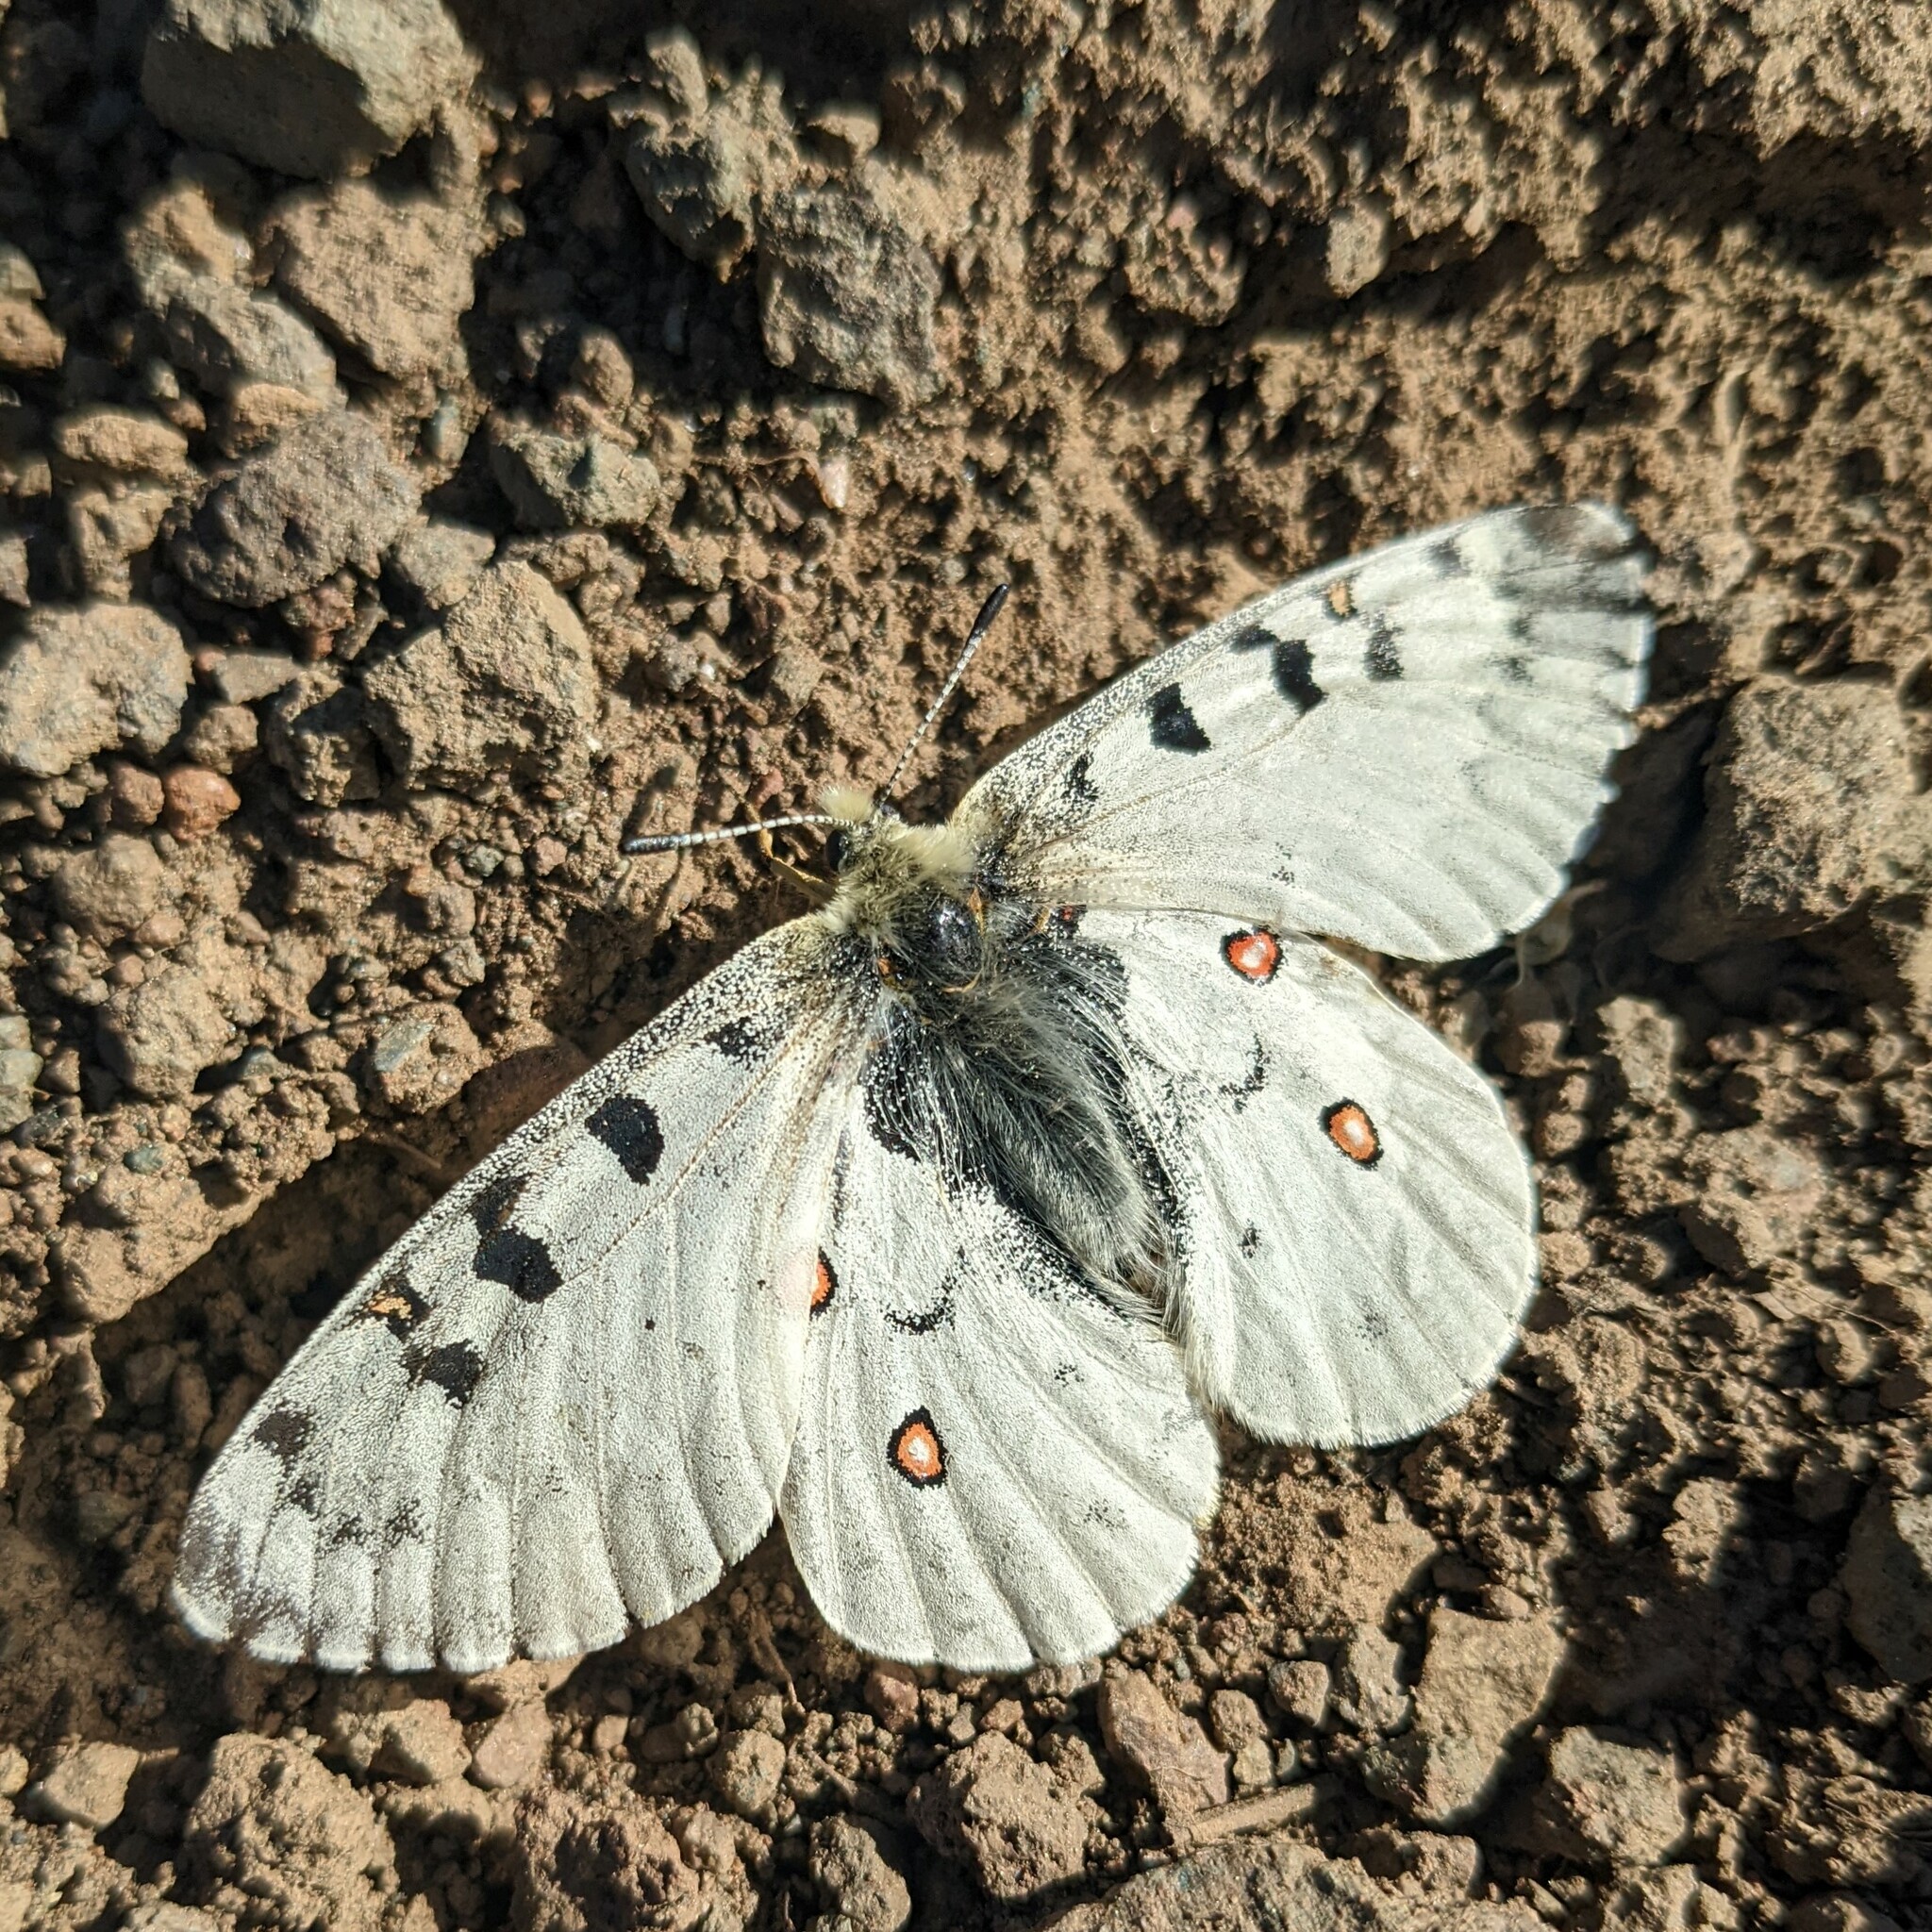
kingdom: Animalia
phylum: Arthropoda
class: Insecta
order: Lepidoptera
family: Papilionidae
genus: Parnassius
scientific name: Parnassius smintheus
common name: Mountain parnassian
